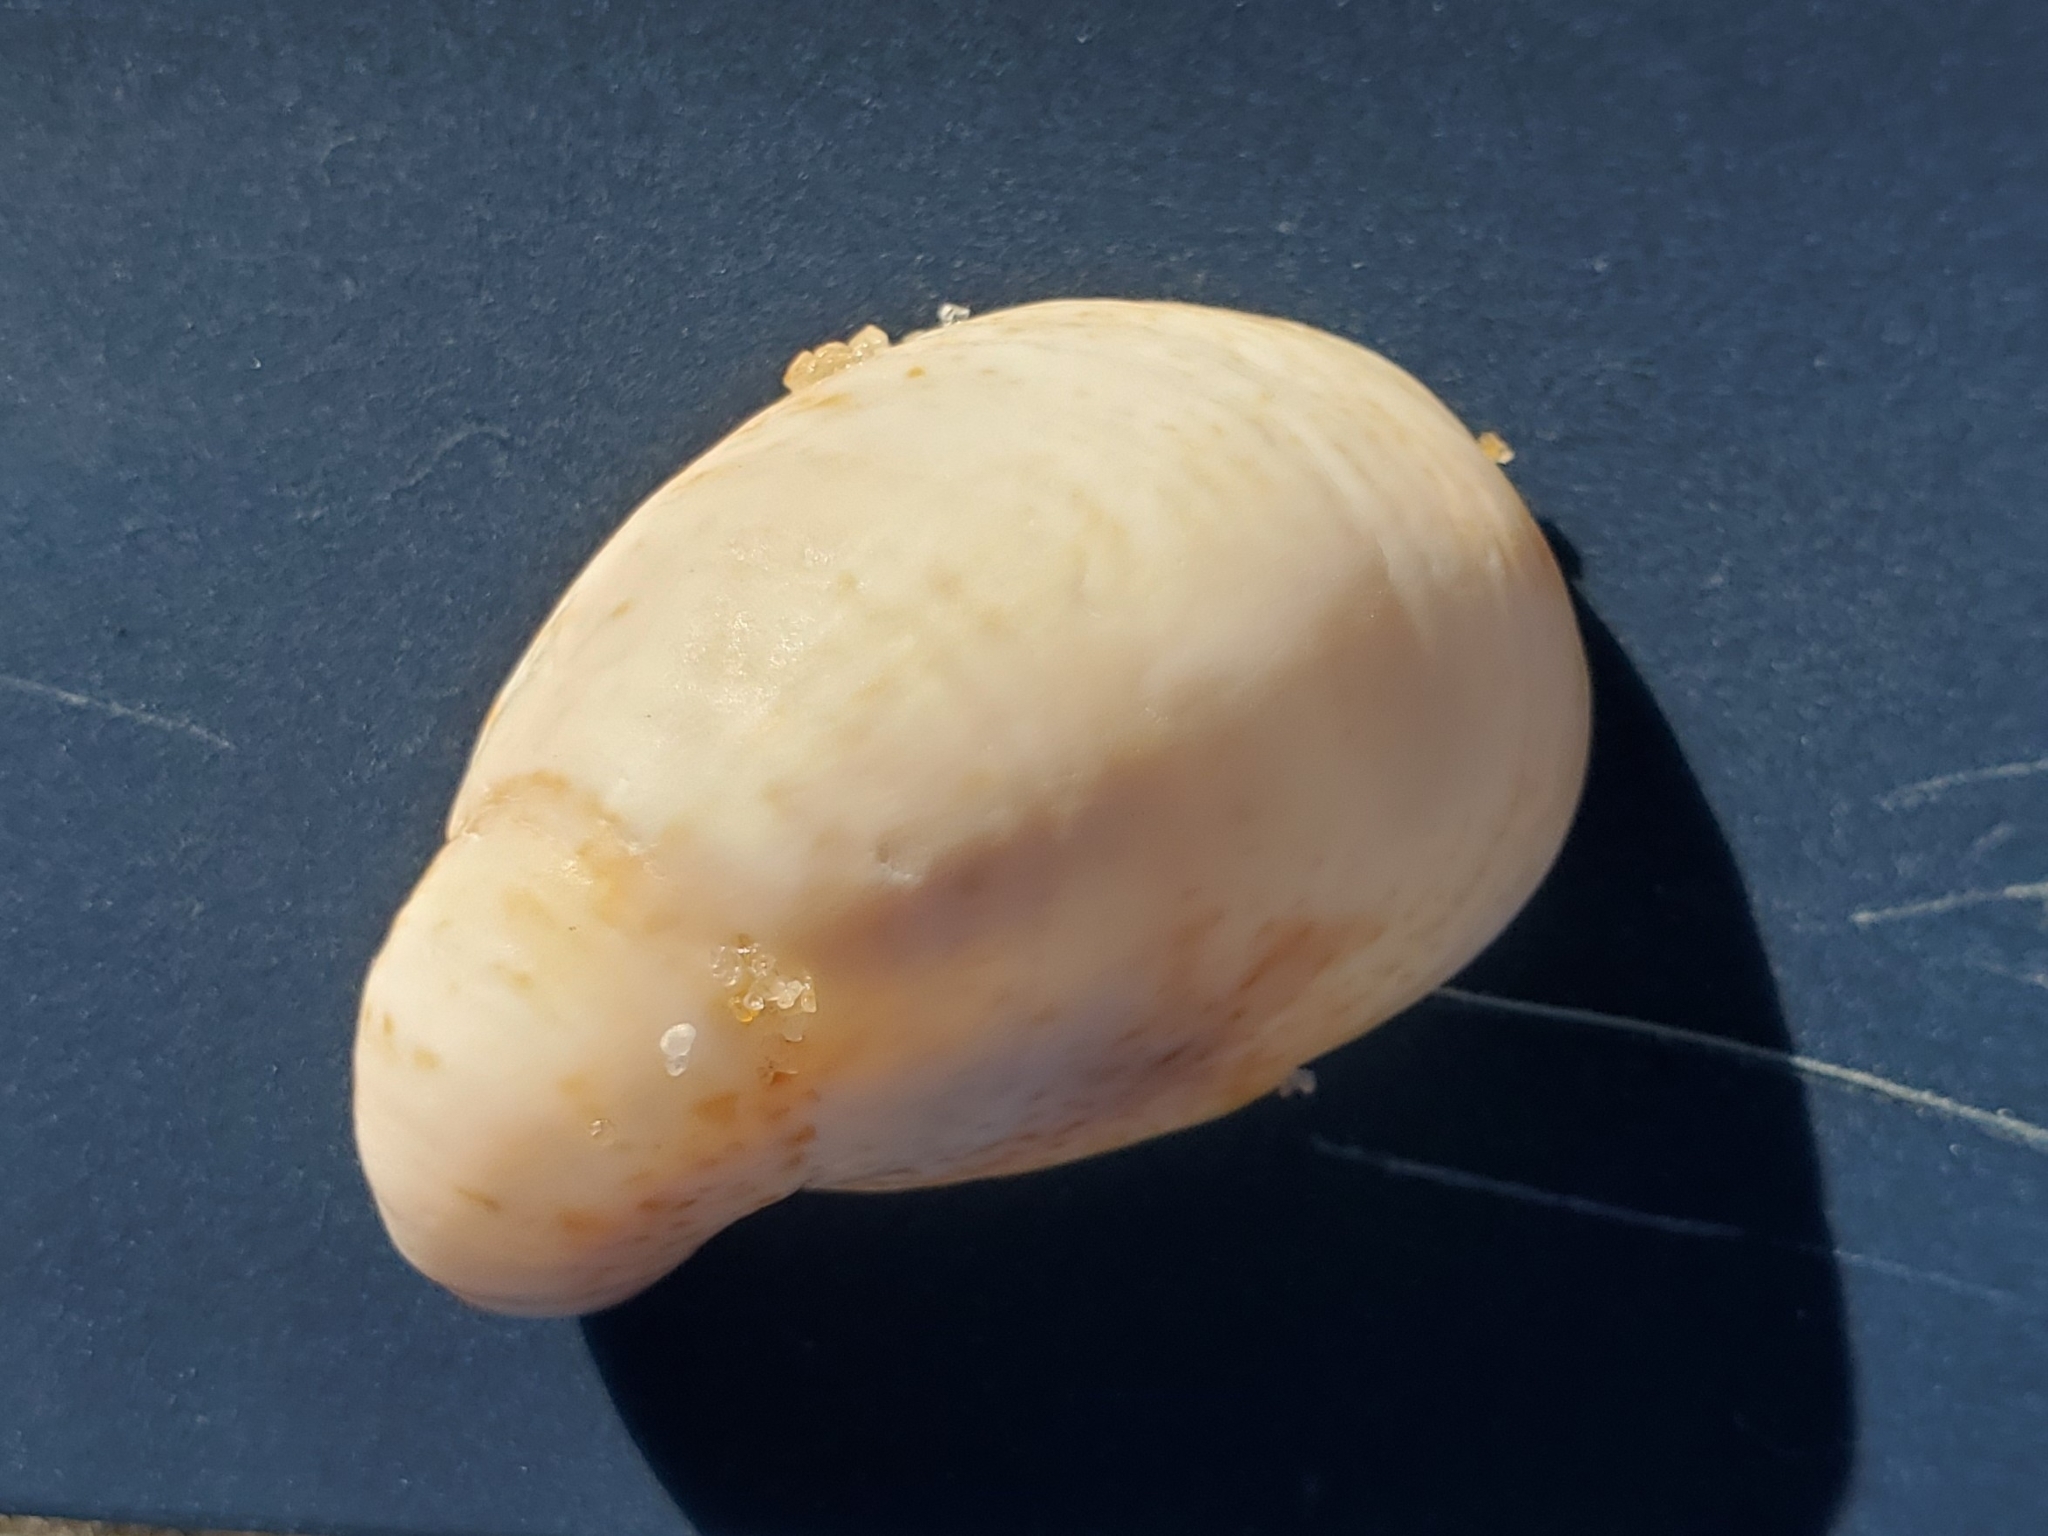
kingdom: Animalia
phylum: Mollusca
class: Gastropoda
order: Littorinimorpha
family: Calyptraeidae
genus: Crepidula
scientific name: Crepidula fornicata
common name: Slipper limpet
